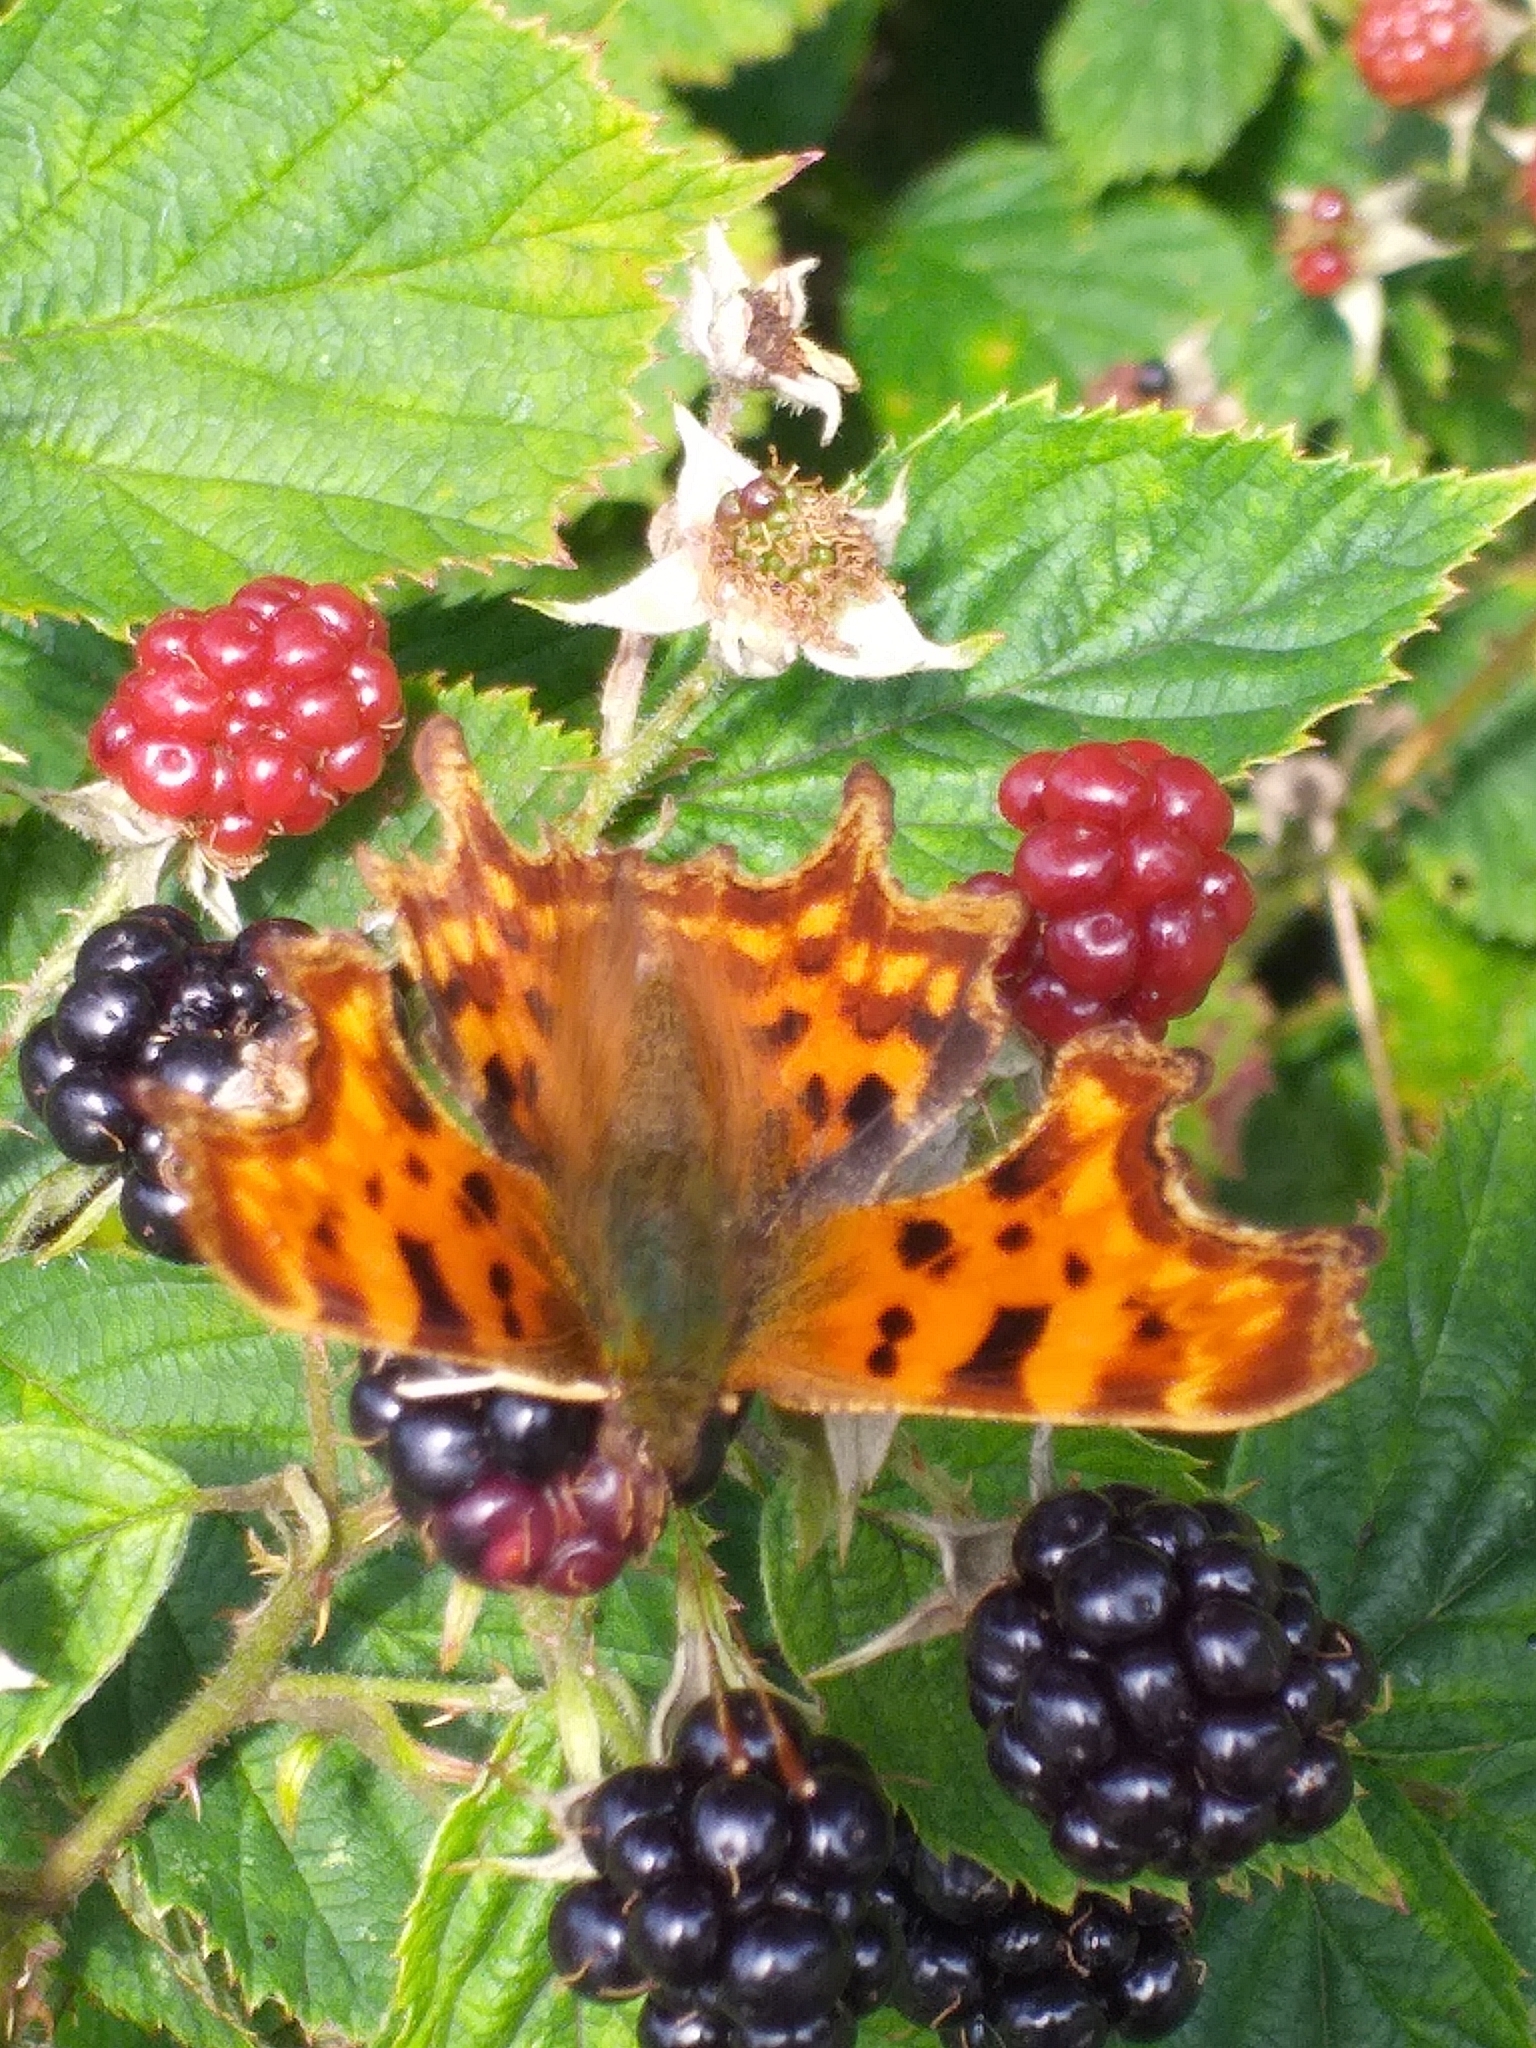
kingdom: Animalia
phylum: Arthropoda
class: Insecta
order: Lepidoptera
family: Nymphalidae
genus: Polygonia
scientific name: Polygonia c-album
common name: Comma
